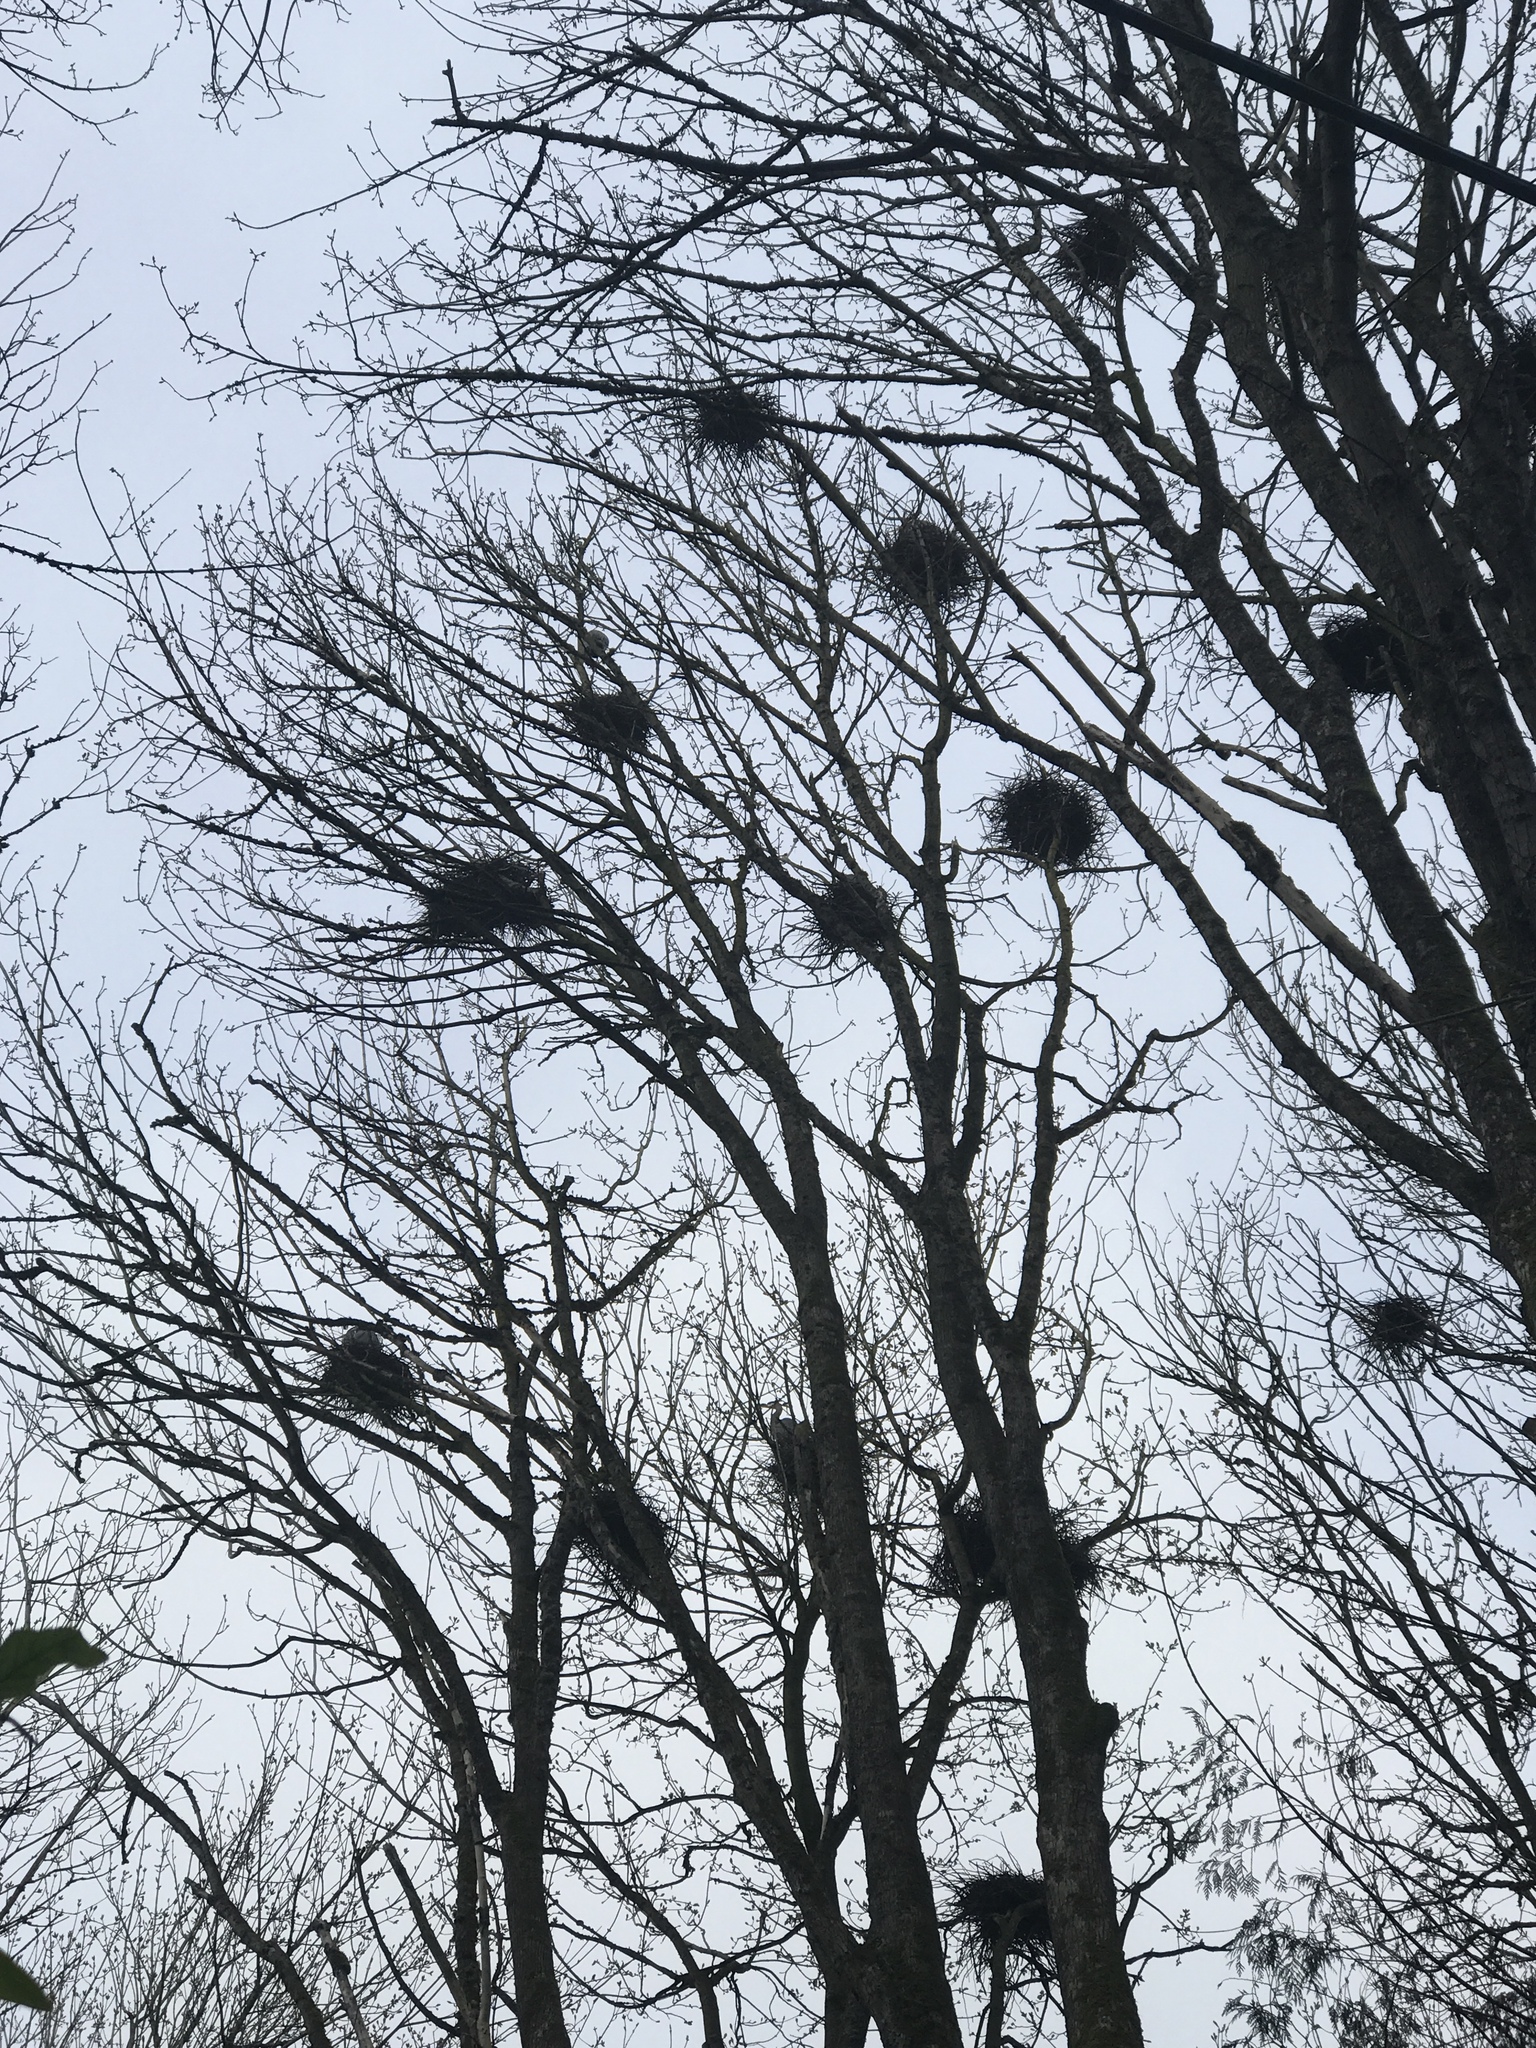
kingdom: Animalia
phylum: Chordata
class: Aves
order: Pelecaniformes
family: Ardeidae
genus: Ardea
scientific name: Ardea herodias
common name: Great blue heron
